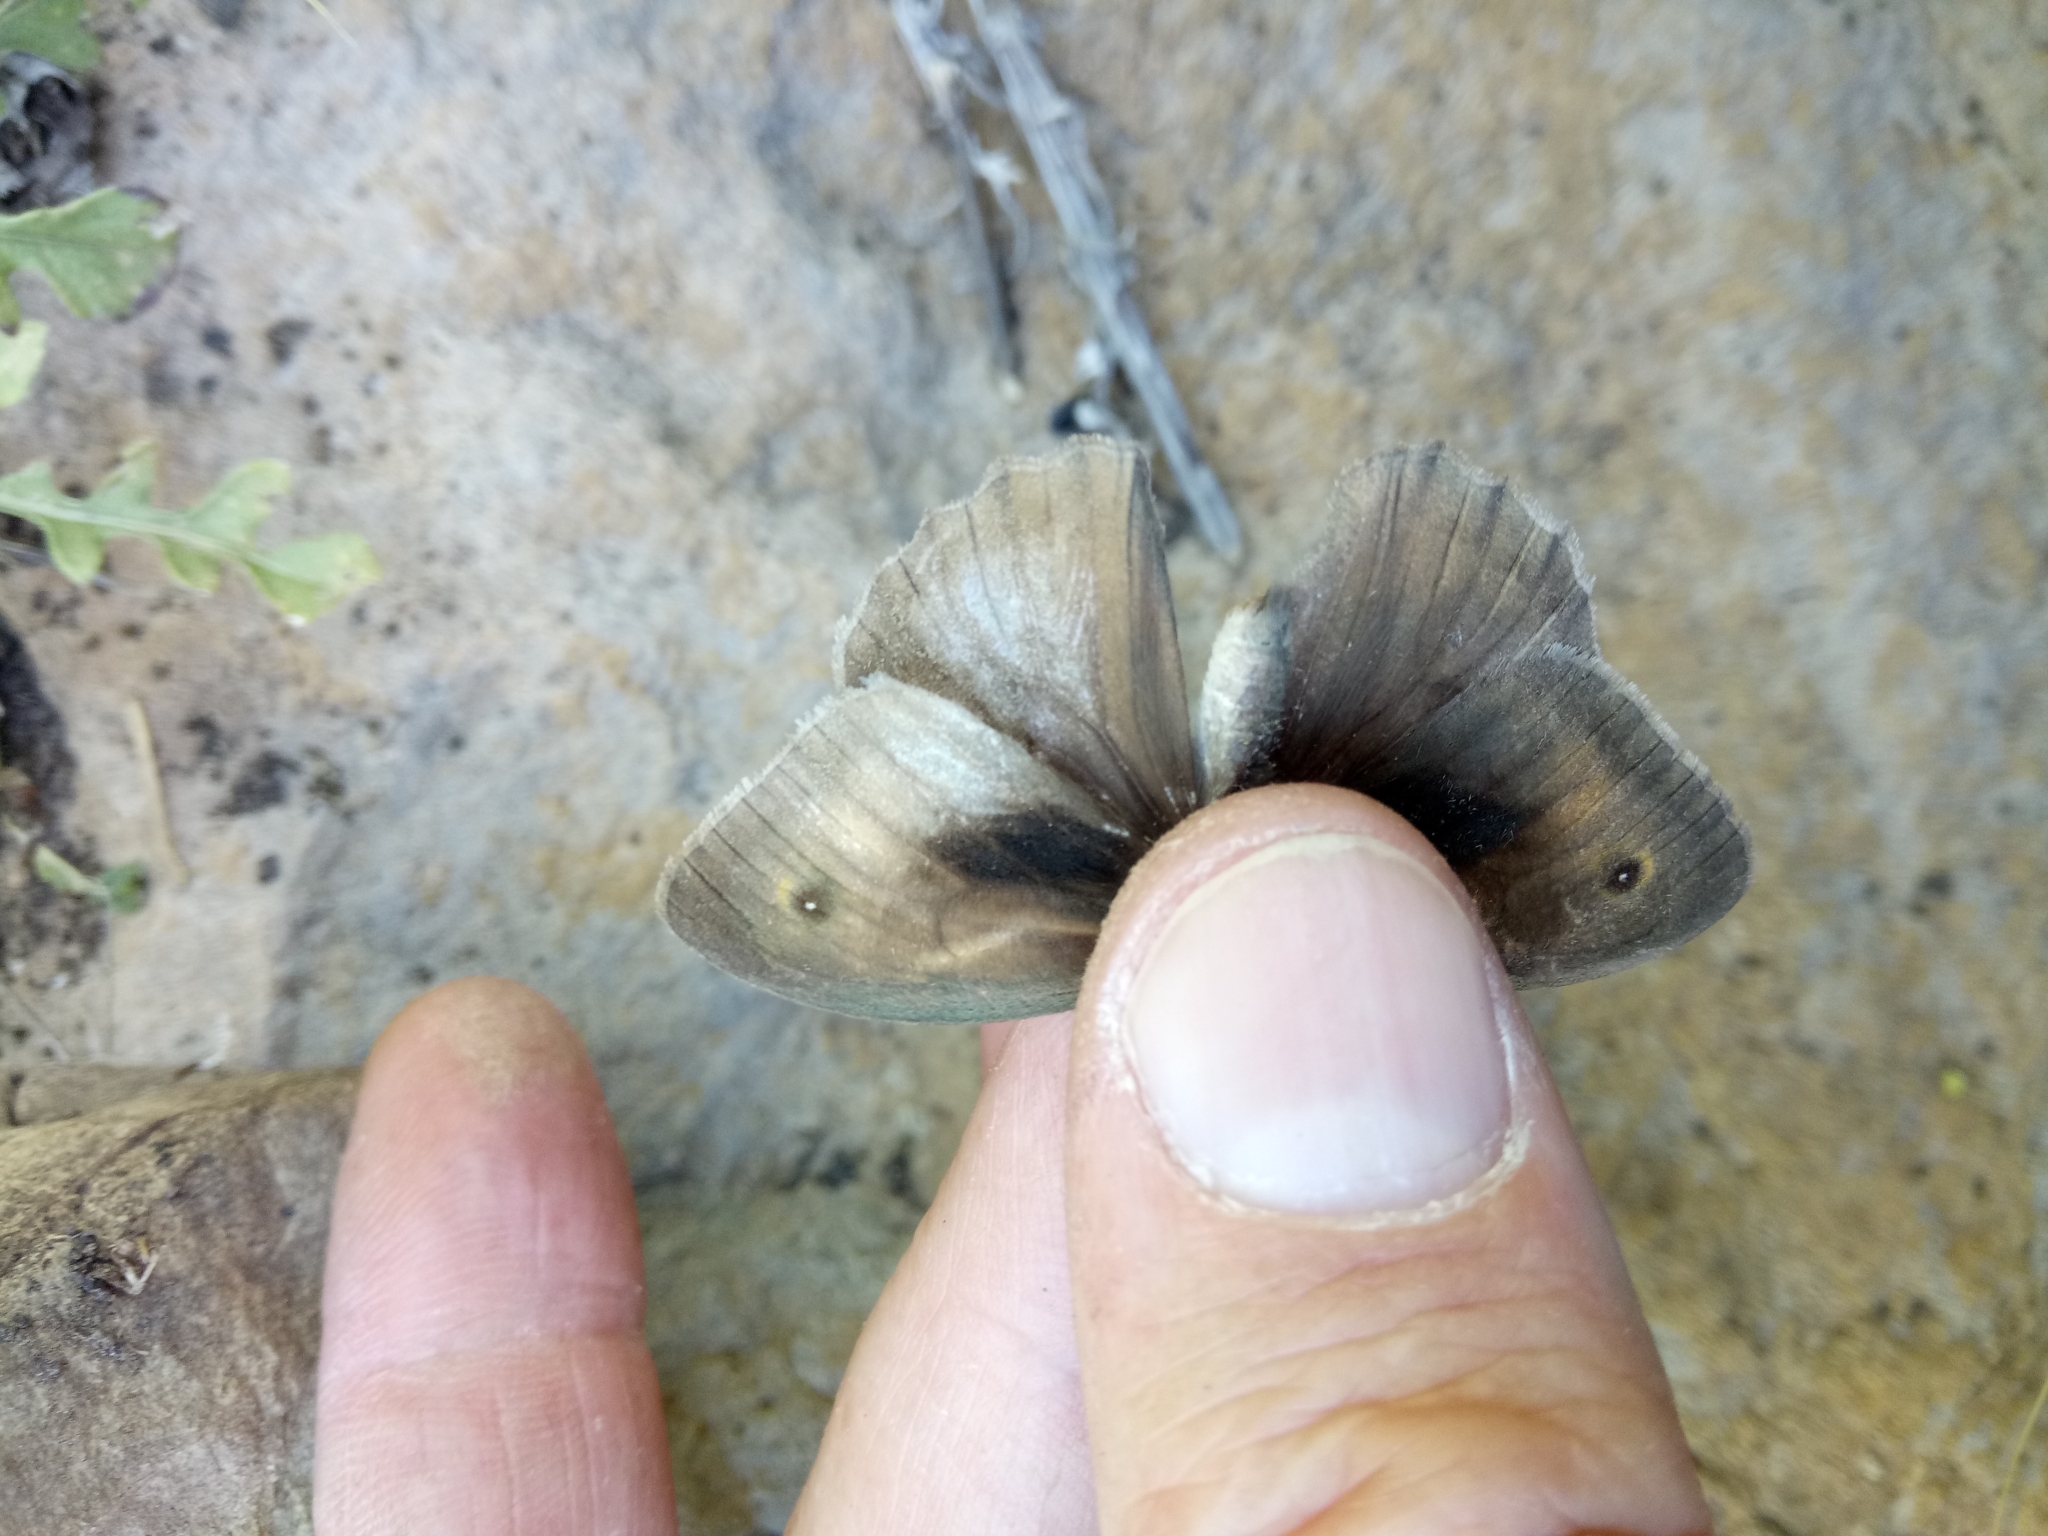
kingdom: Animalia
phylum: Arthropoda
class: Insecta
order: Lepidoptera
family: Nymphalidae
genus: Maniola
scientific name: Maniola jurtina
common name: Meadow brown
